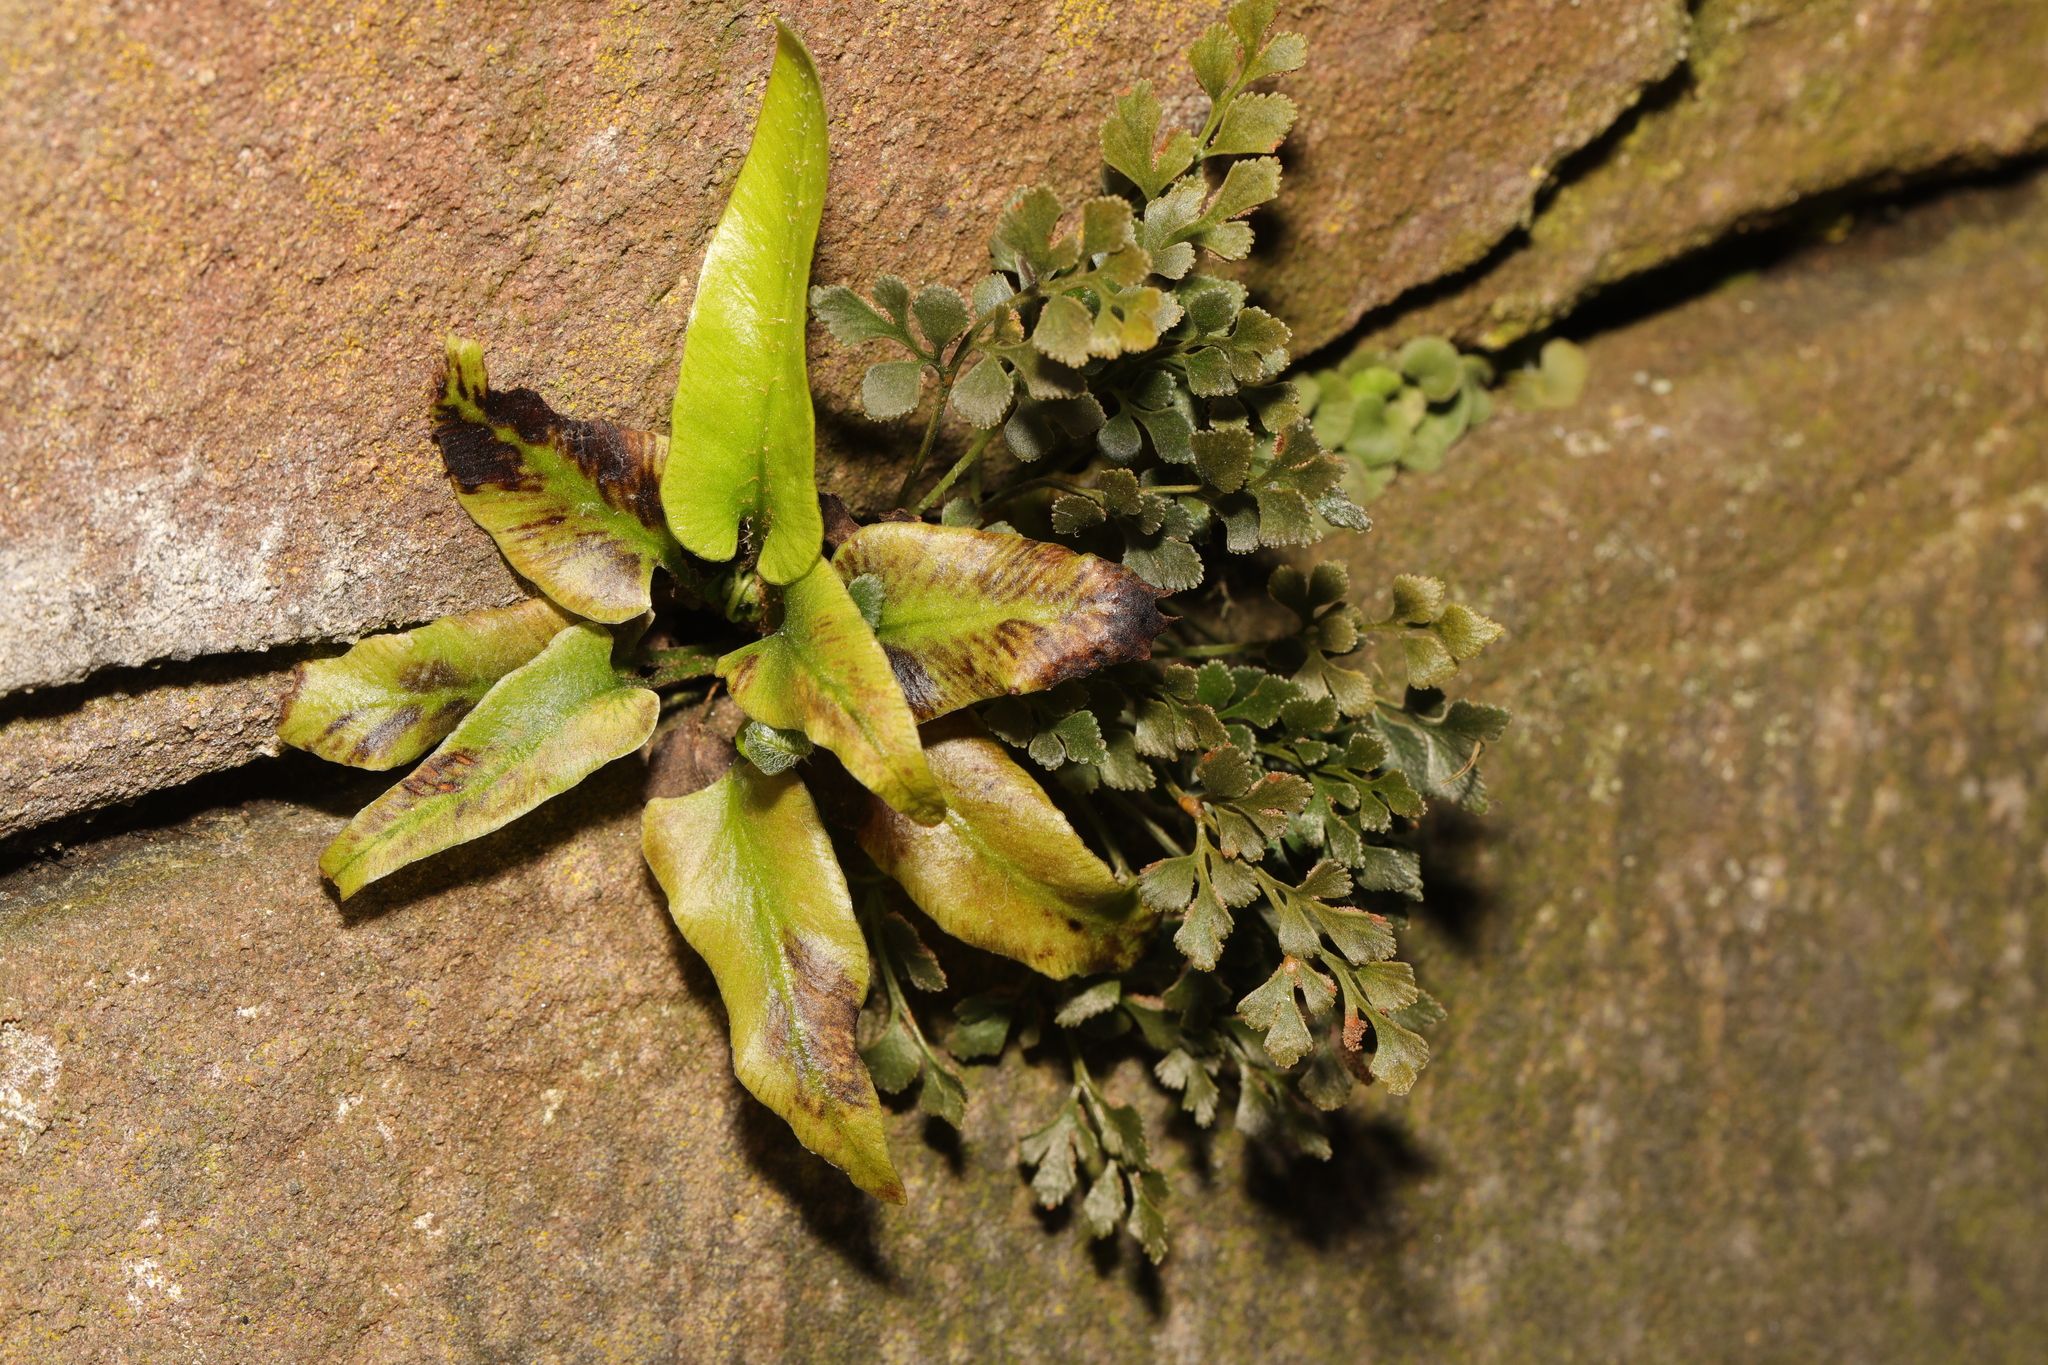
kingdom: Plantae
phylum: Tracheophyta
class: Polypodiopsida
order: Polypodiales
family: Aspleniaceae
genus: Asplenium
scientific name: Asplenium scolopendrium
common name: Hart's-tongue fern
